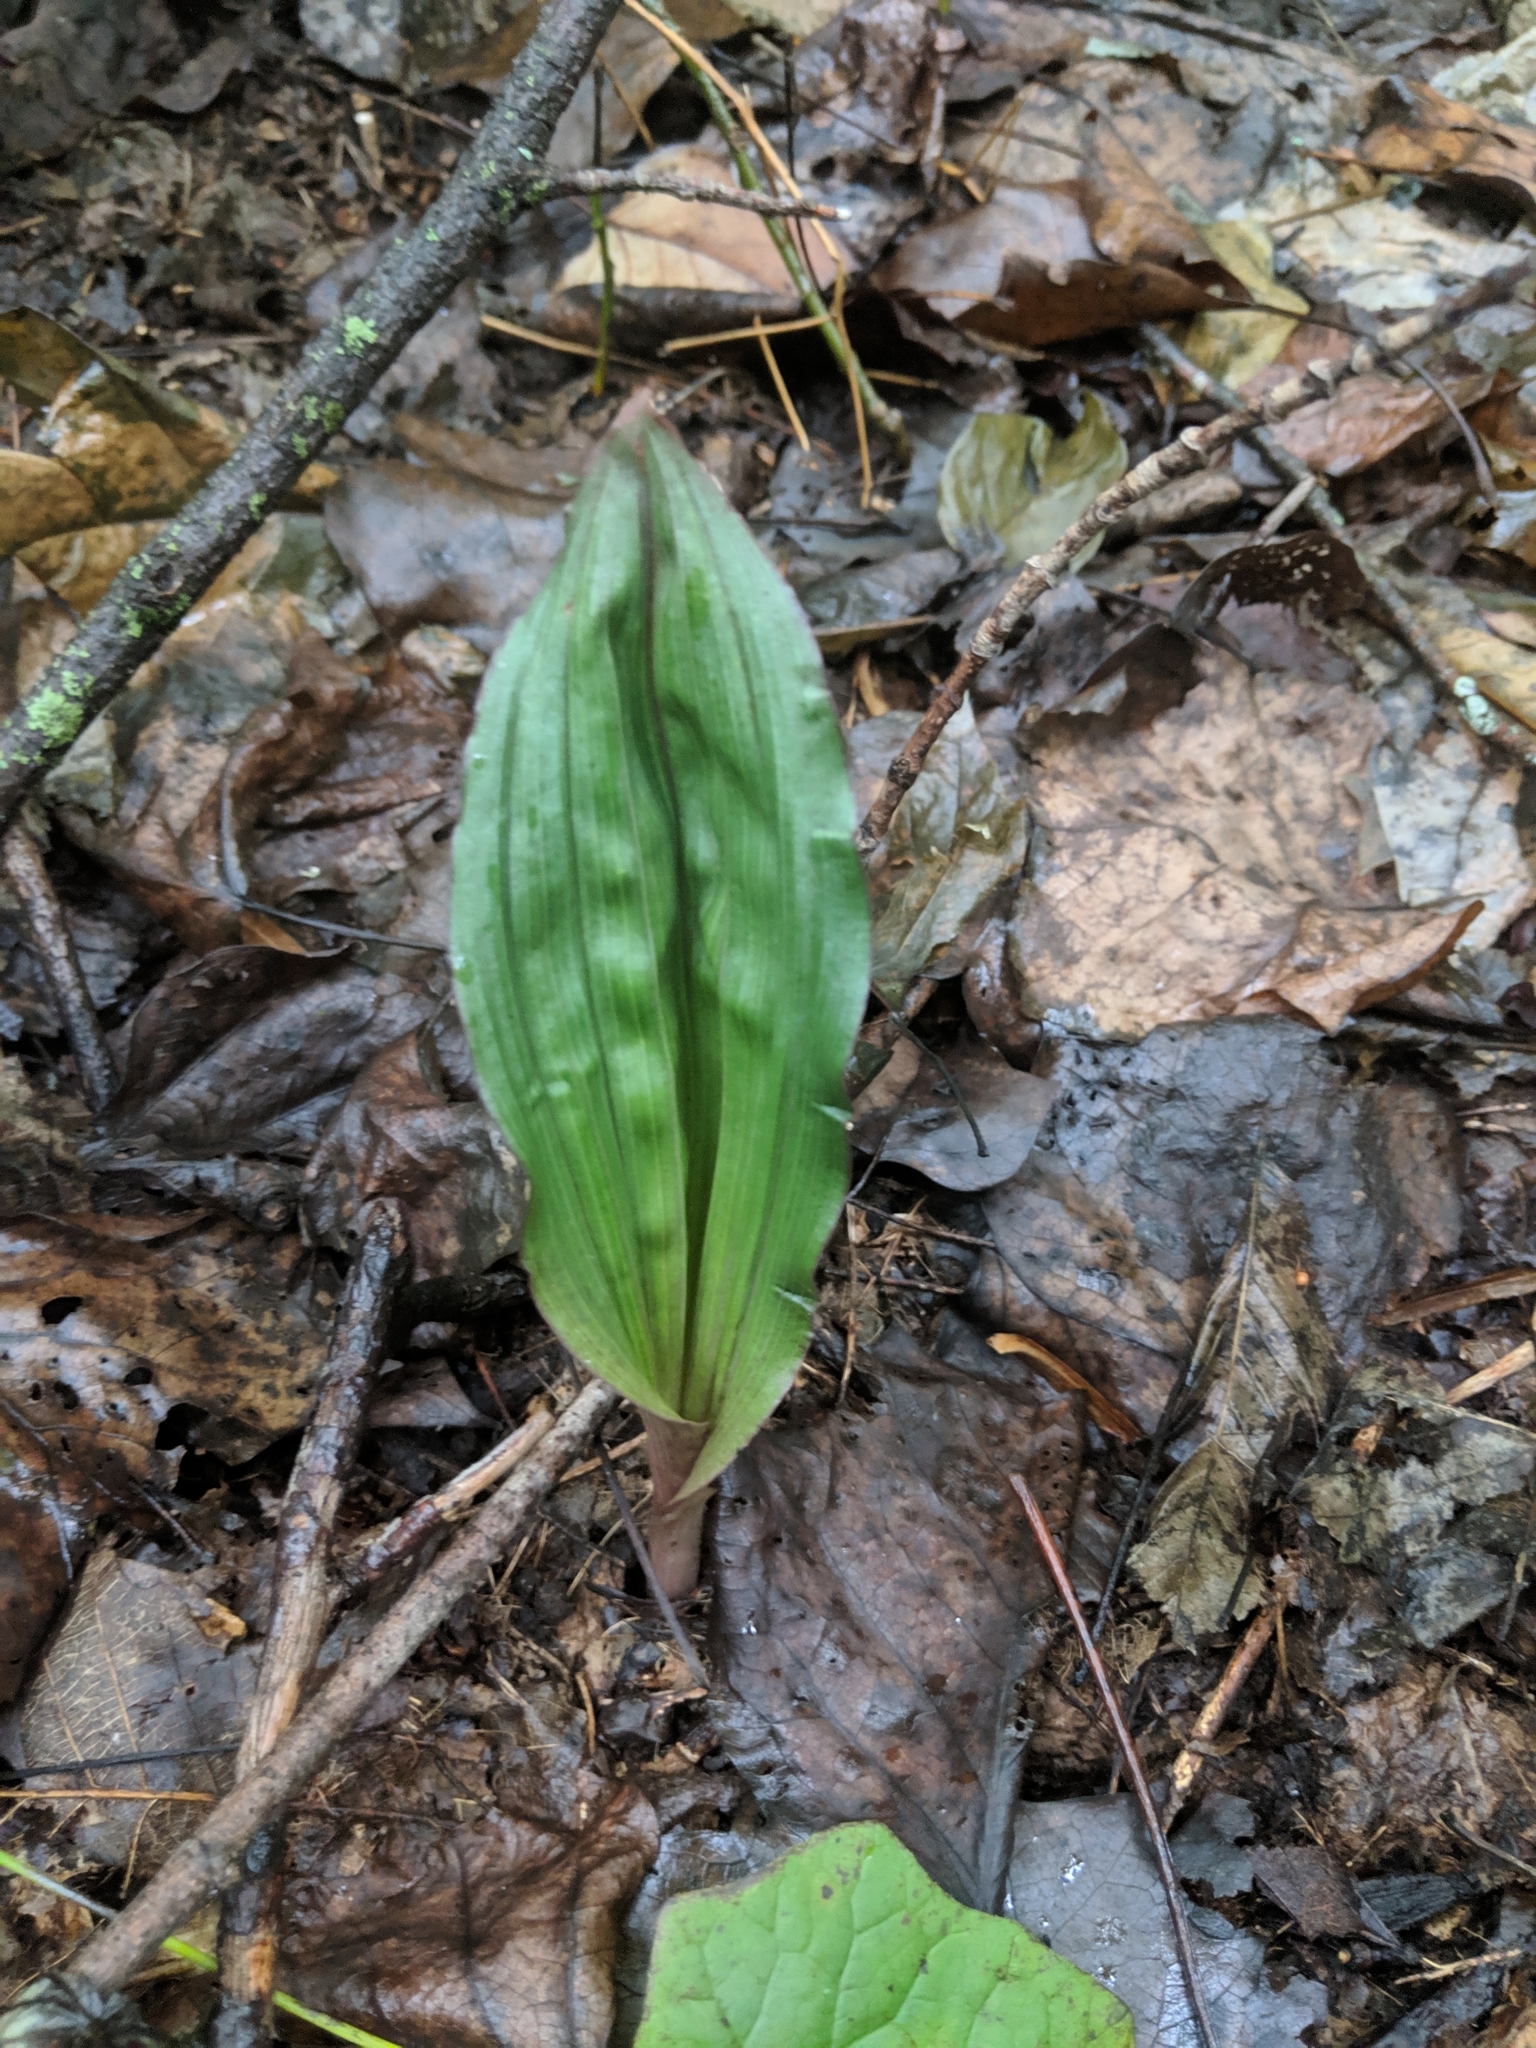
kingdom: Plantae
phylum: Tracheophyta
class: Liliopsida
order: Asparagales
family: Orchidaceae
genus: Aplectrum
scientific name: Aplectrum hyemale
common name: Adam-and-eve
